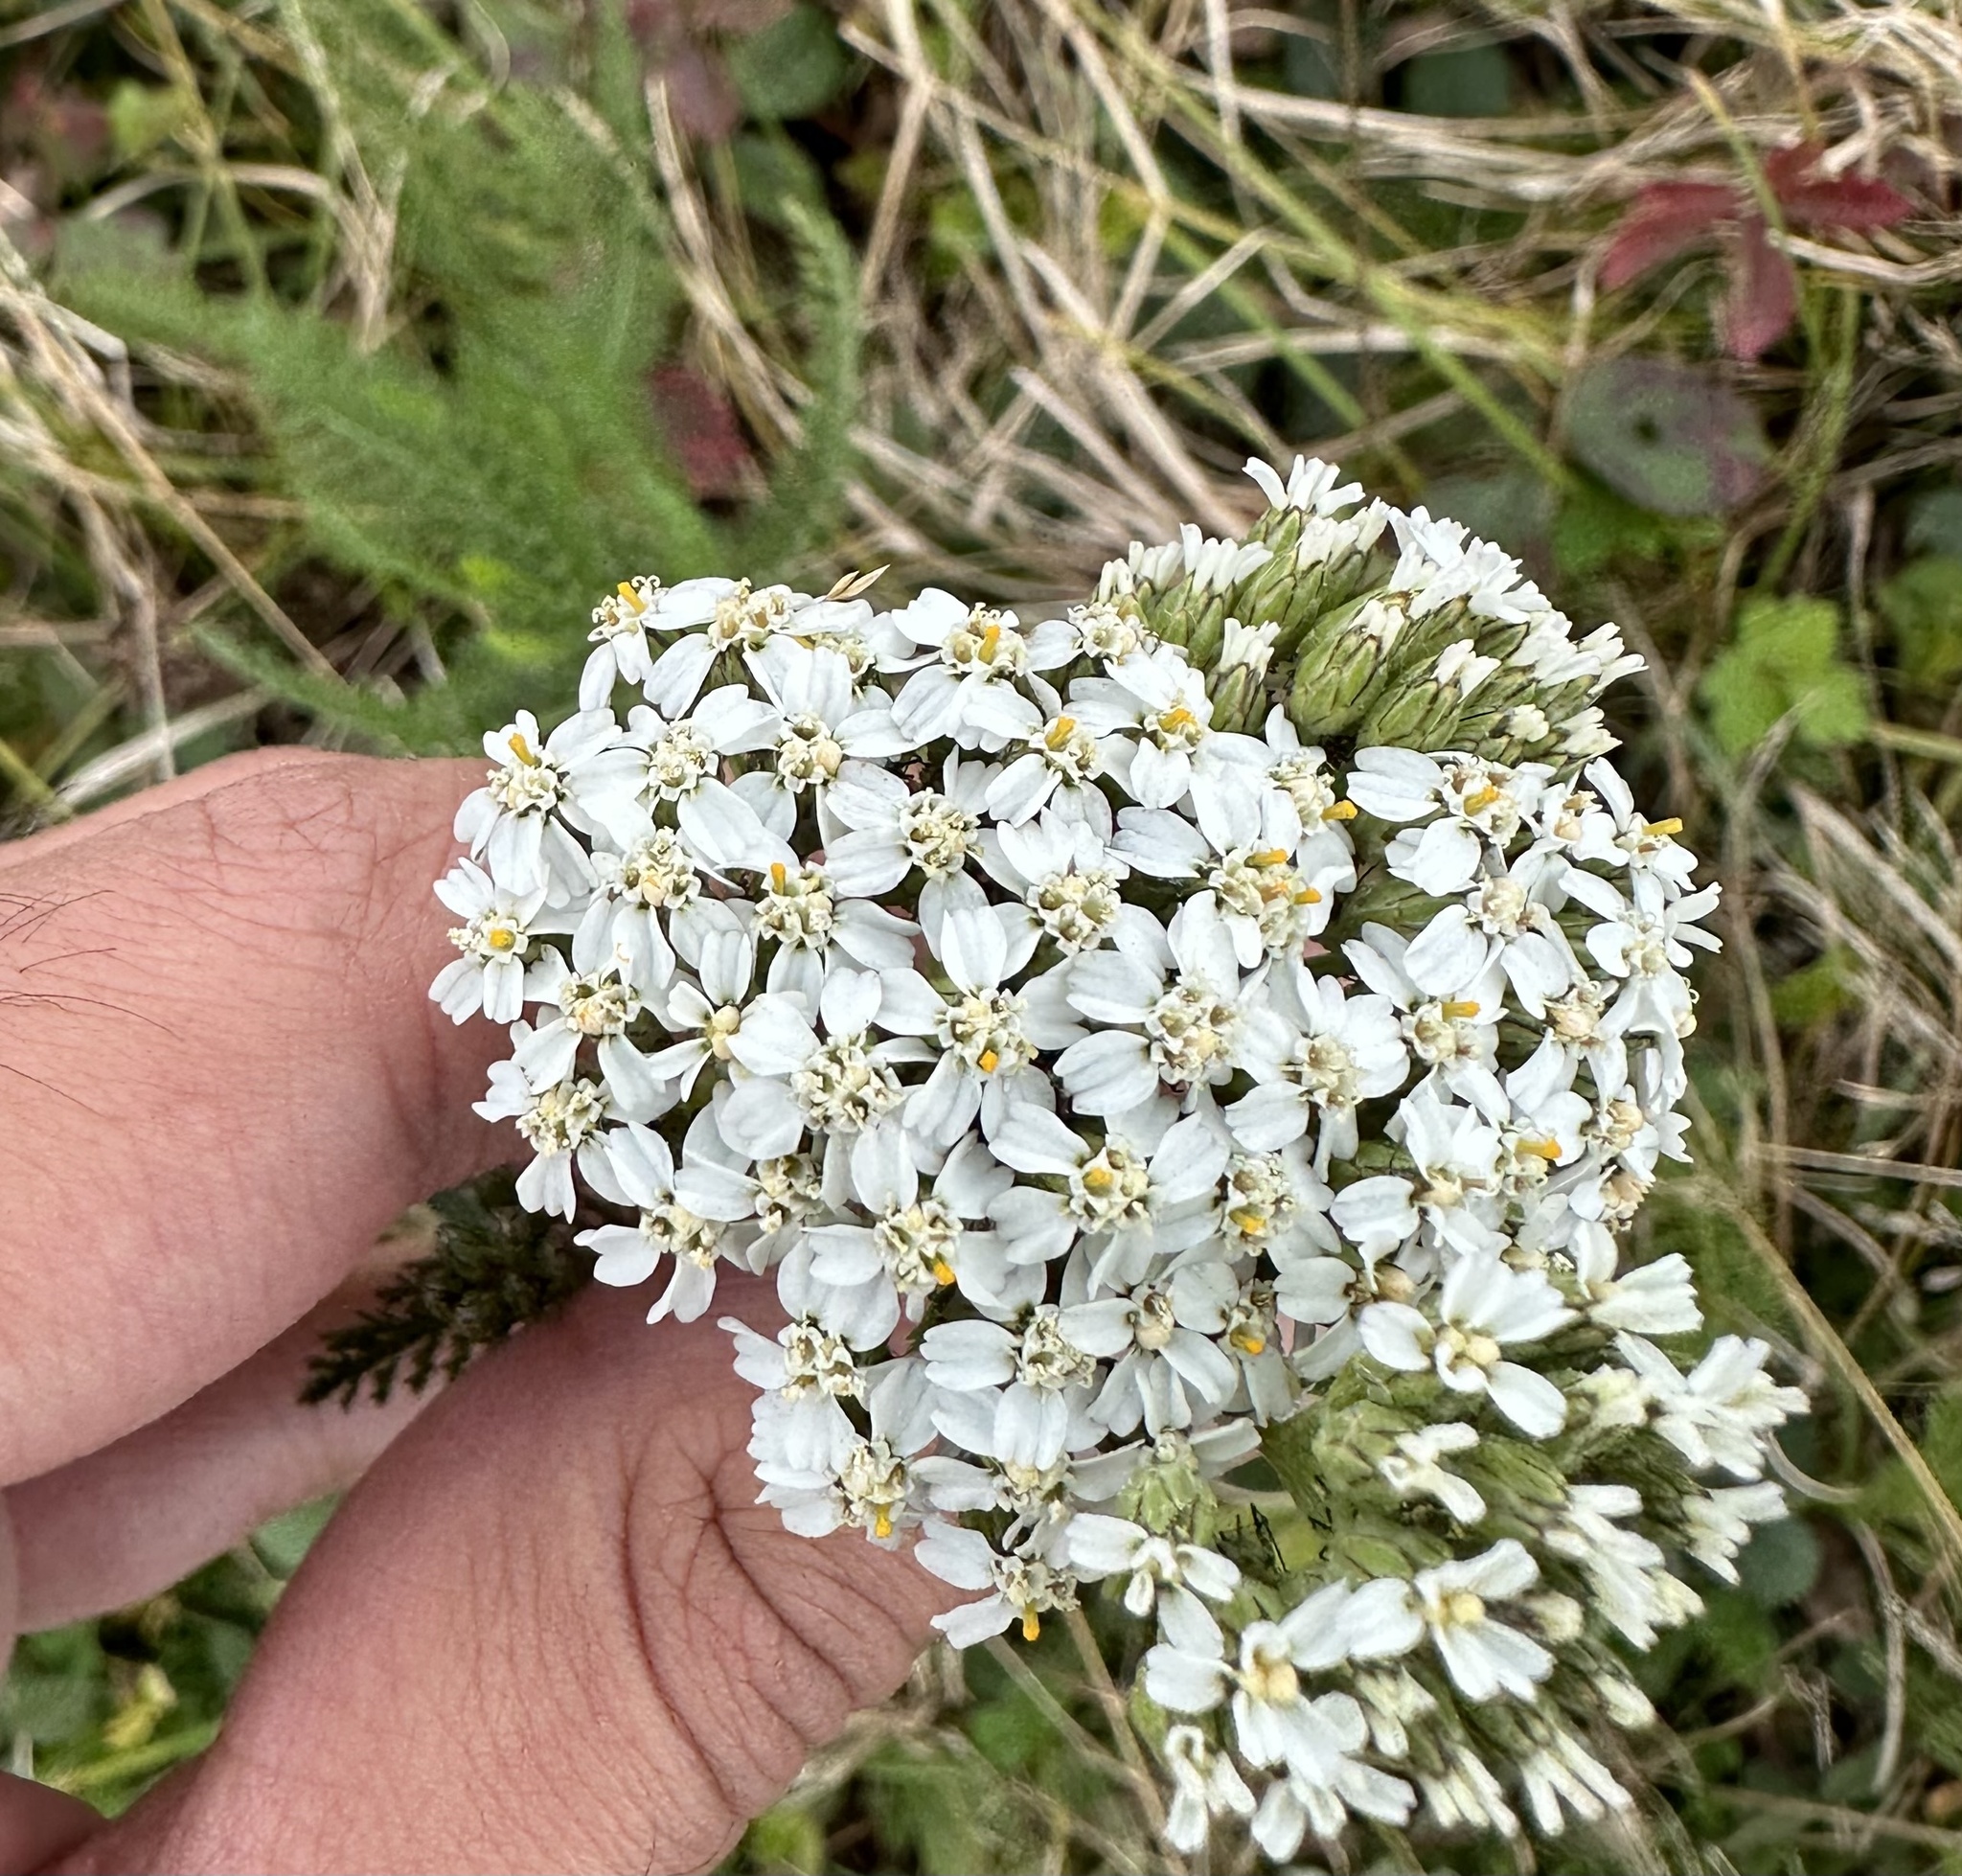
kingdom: Plantae
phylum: Tracheophyta
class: Magnoliopsida
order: Asterales
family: Asteraceae
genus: Achillea
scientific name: Achillea millefolium
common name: Yarrow
